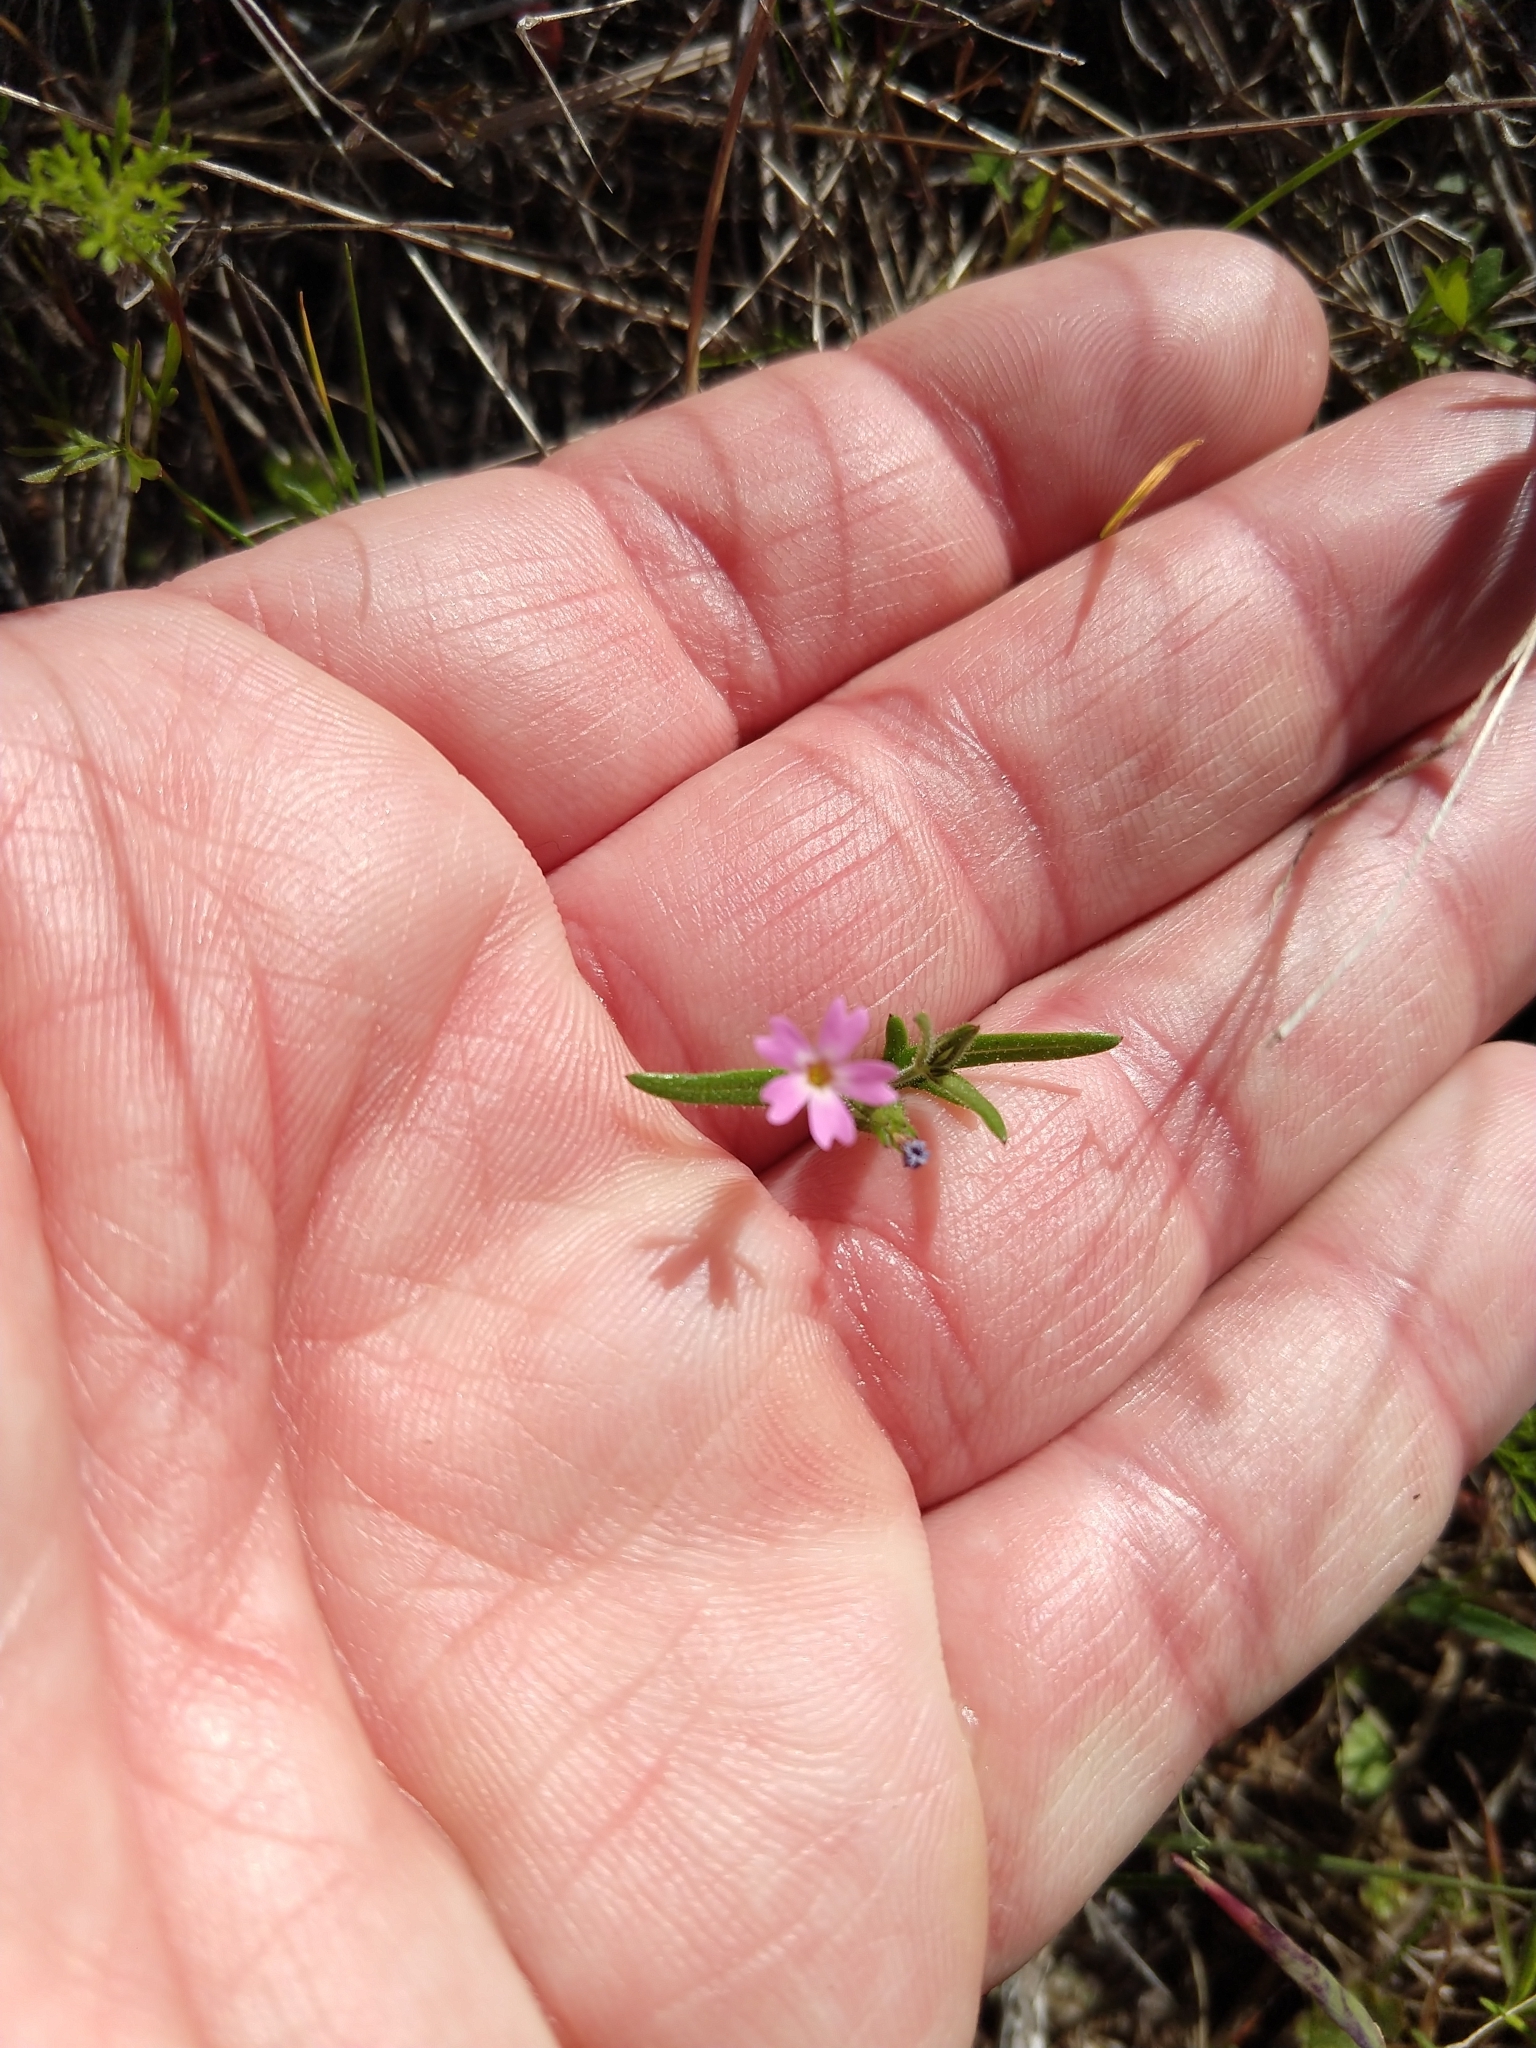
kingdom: Plantae
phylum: Tracheophyta
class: Magnoliopsida
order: Ericales
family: Polemoniaceae
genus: Phlox
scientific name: Phlox gracilis
